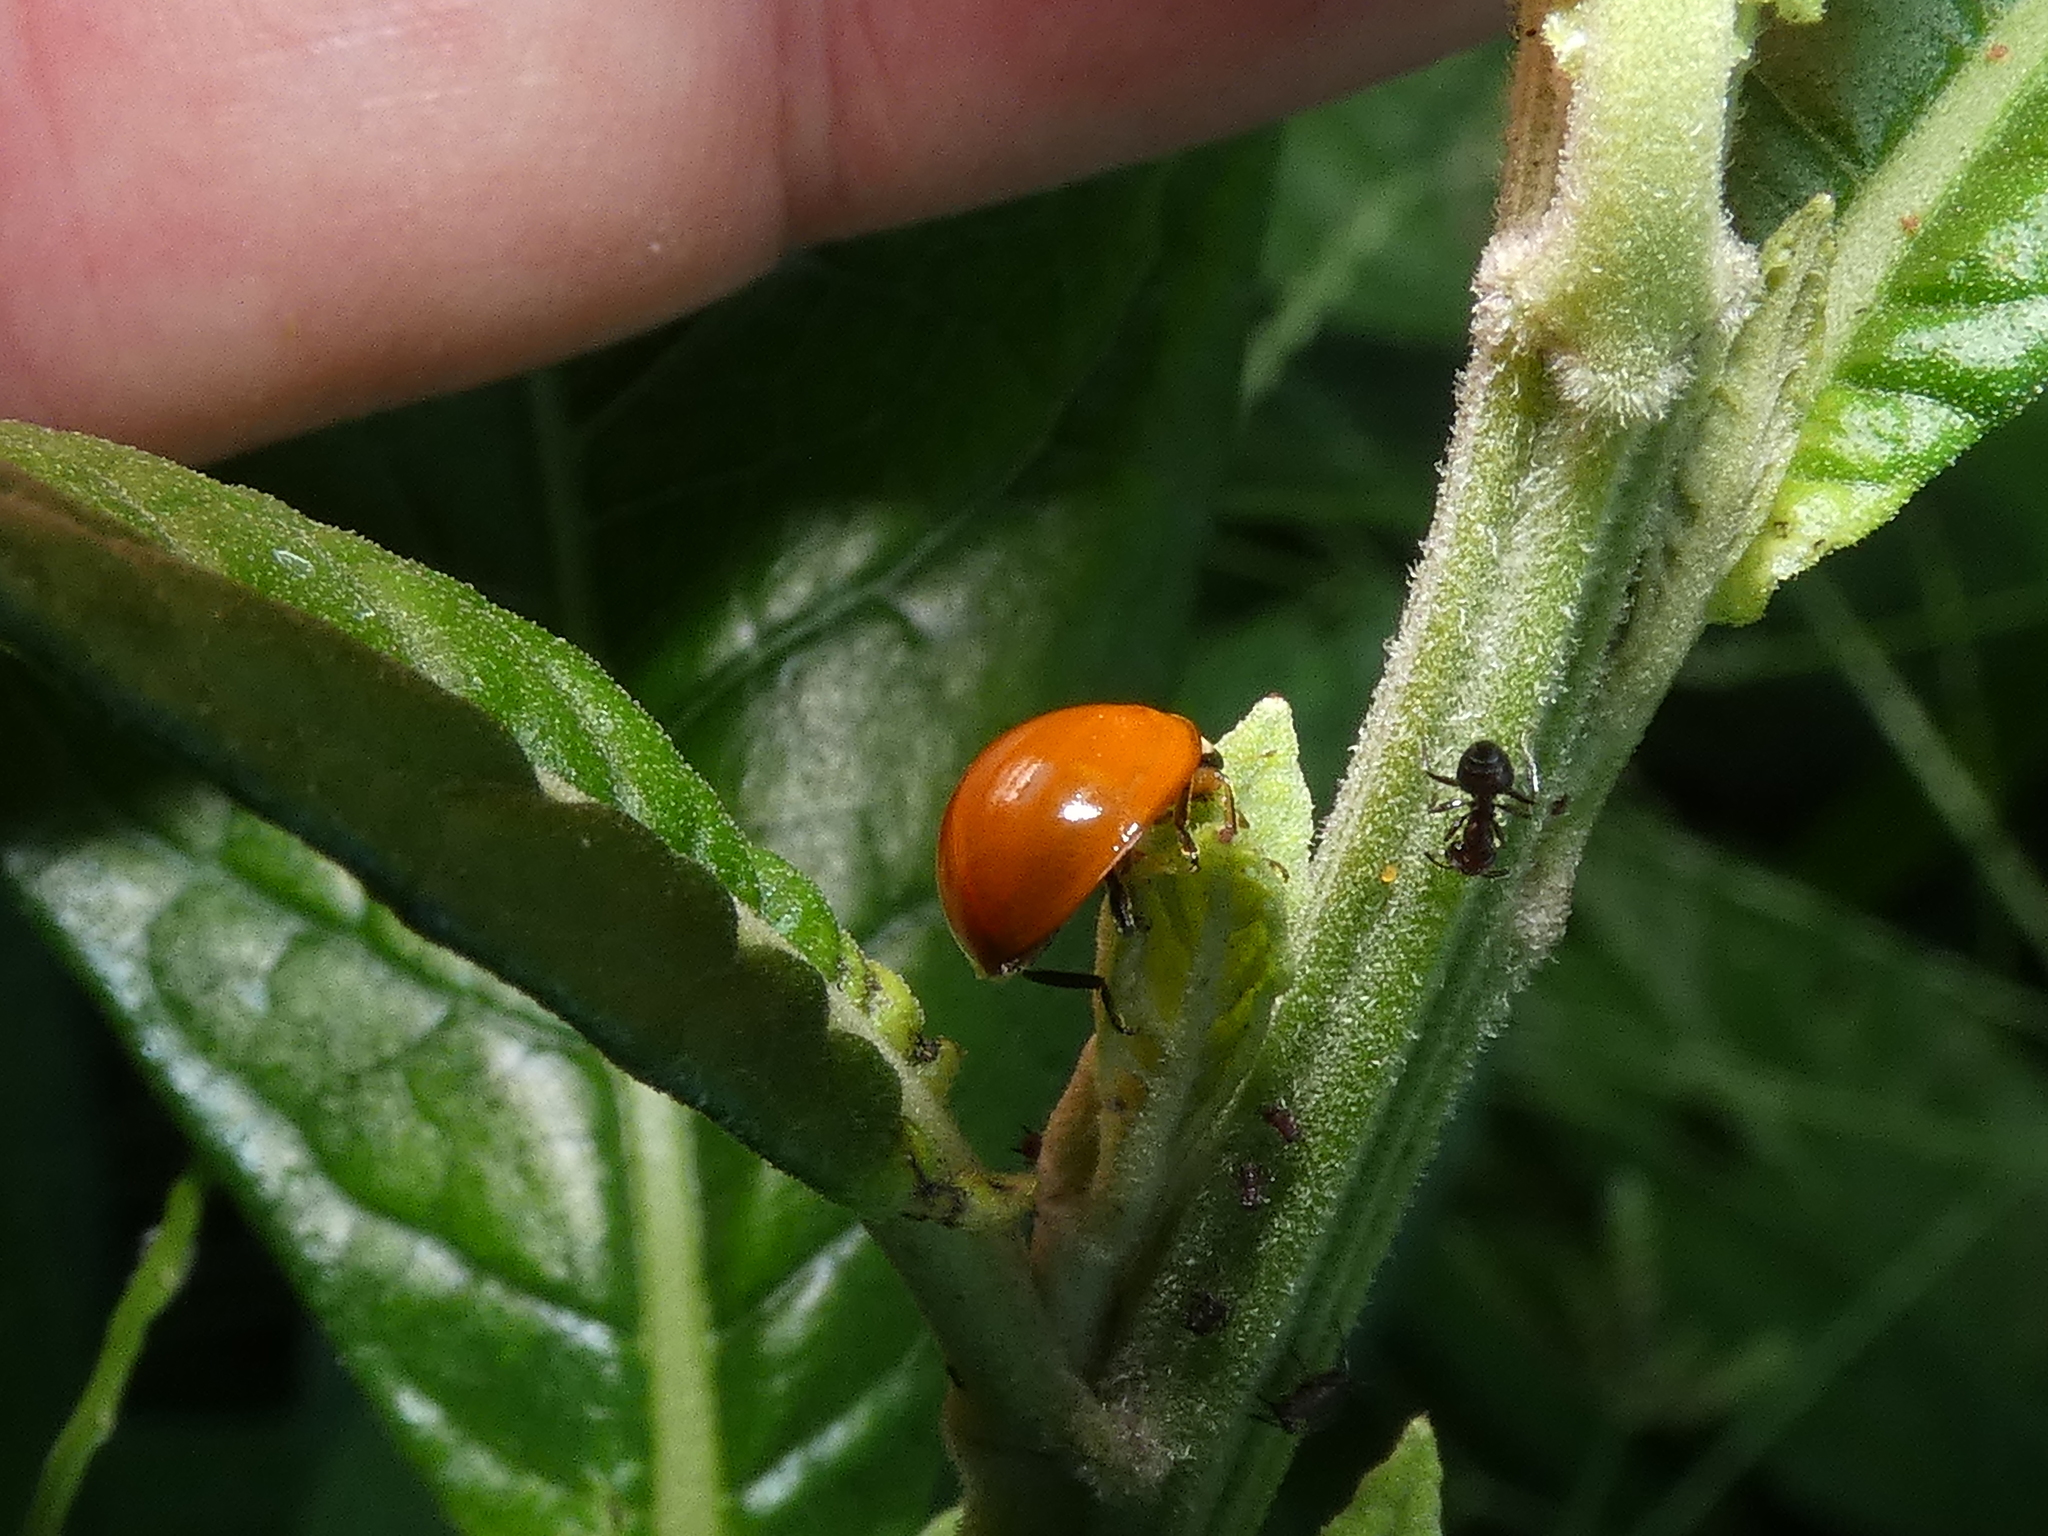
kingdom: Animalia
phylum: Arthropoda
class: Insecta
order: Coleoptera
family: Coccinellidae
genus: Cycloneda
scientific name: Cycloneda sanguinea
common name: Ladybird beetle
